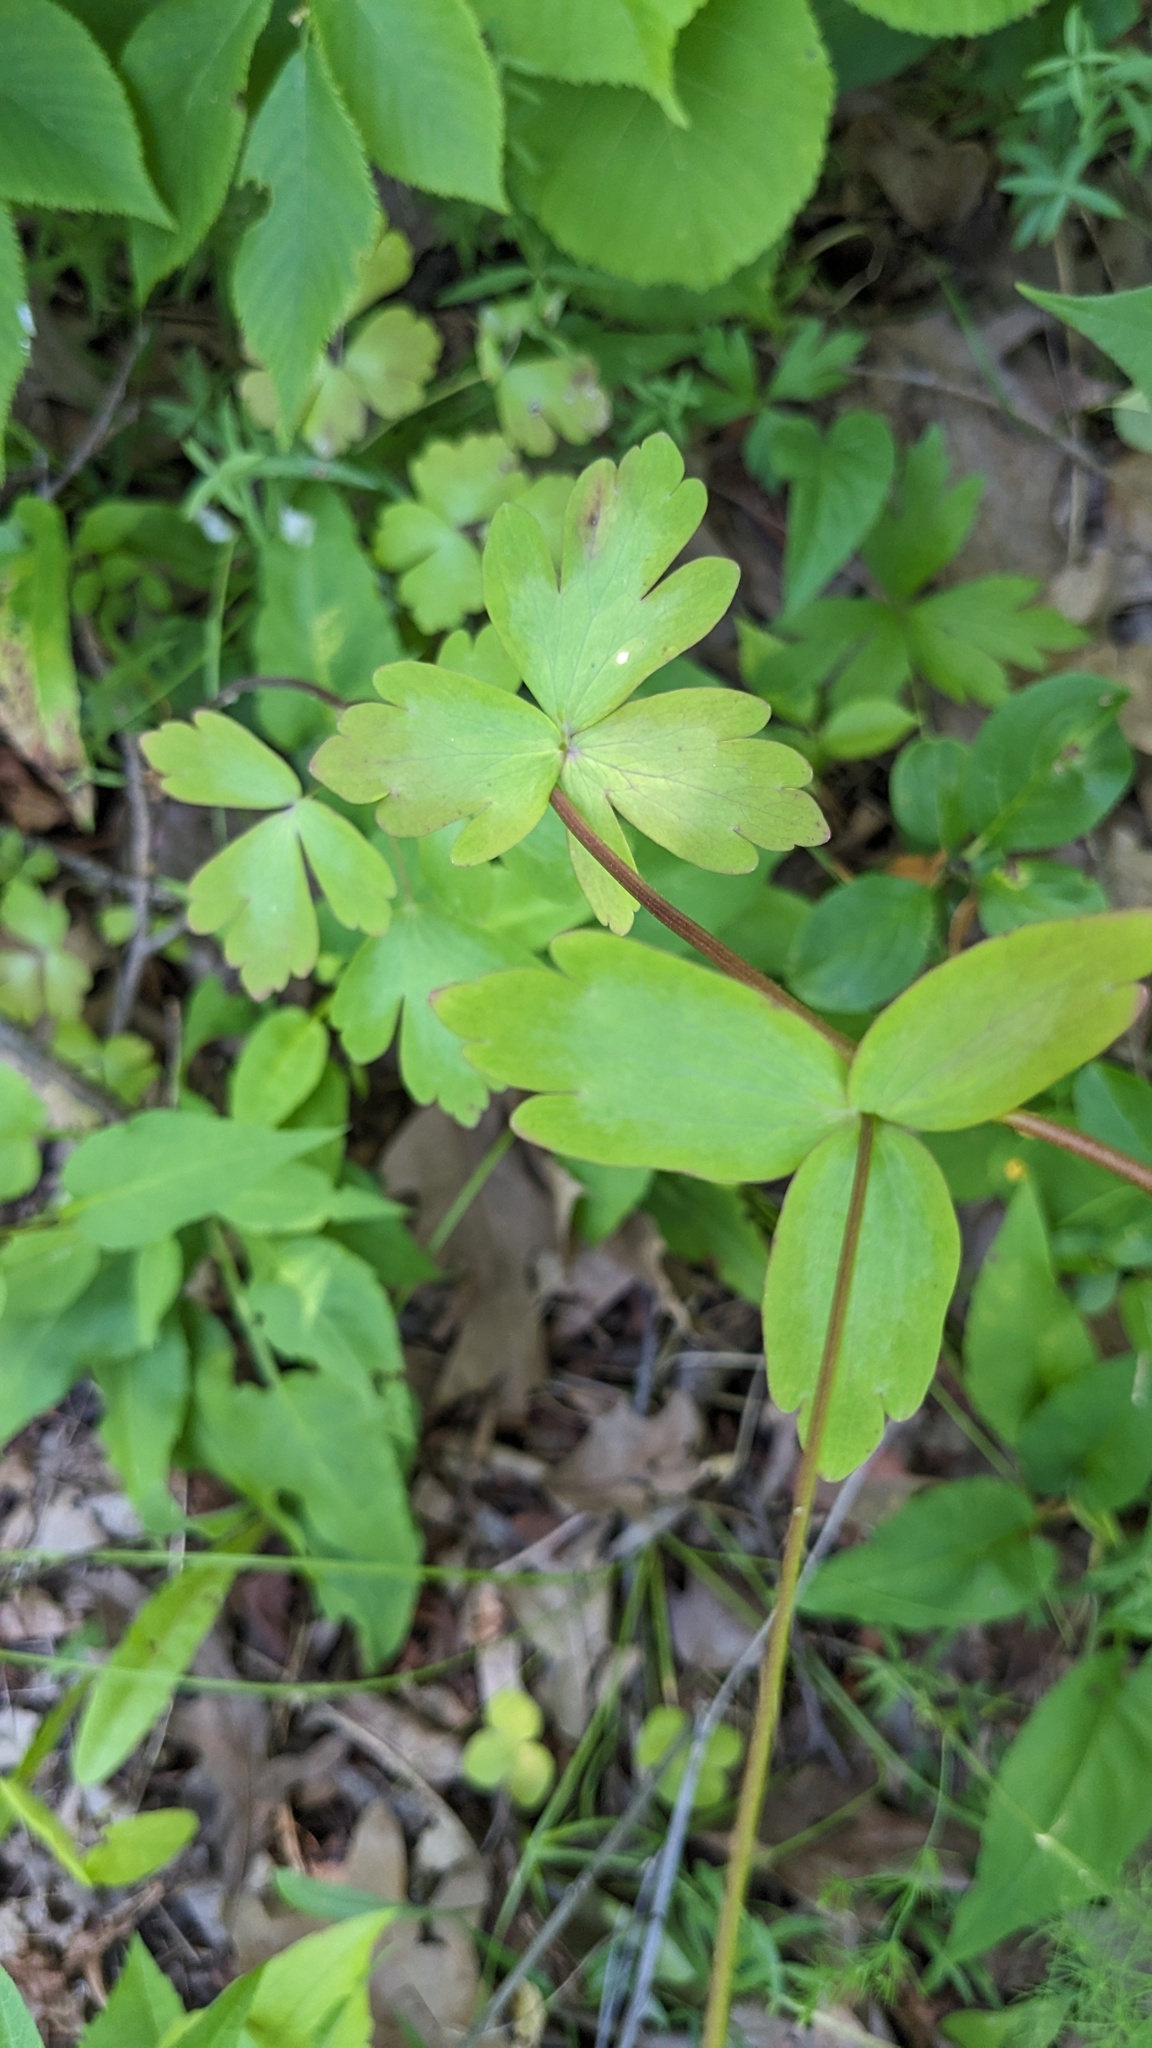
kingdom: Plantae
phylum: Tracheophyta
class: Magnoliopsida
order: Ranunculales
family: Ranunculaceae
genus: Aquilegia
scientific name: Aquilegia canadensis
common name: American columbine
